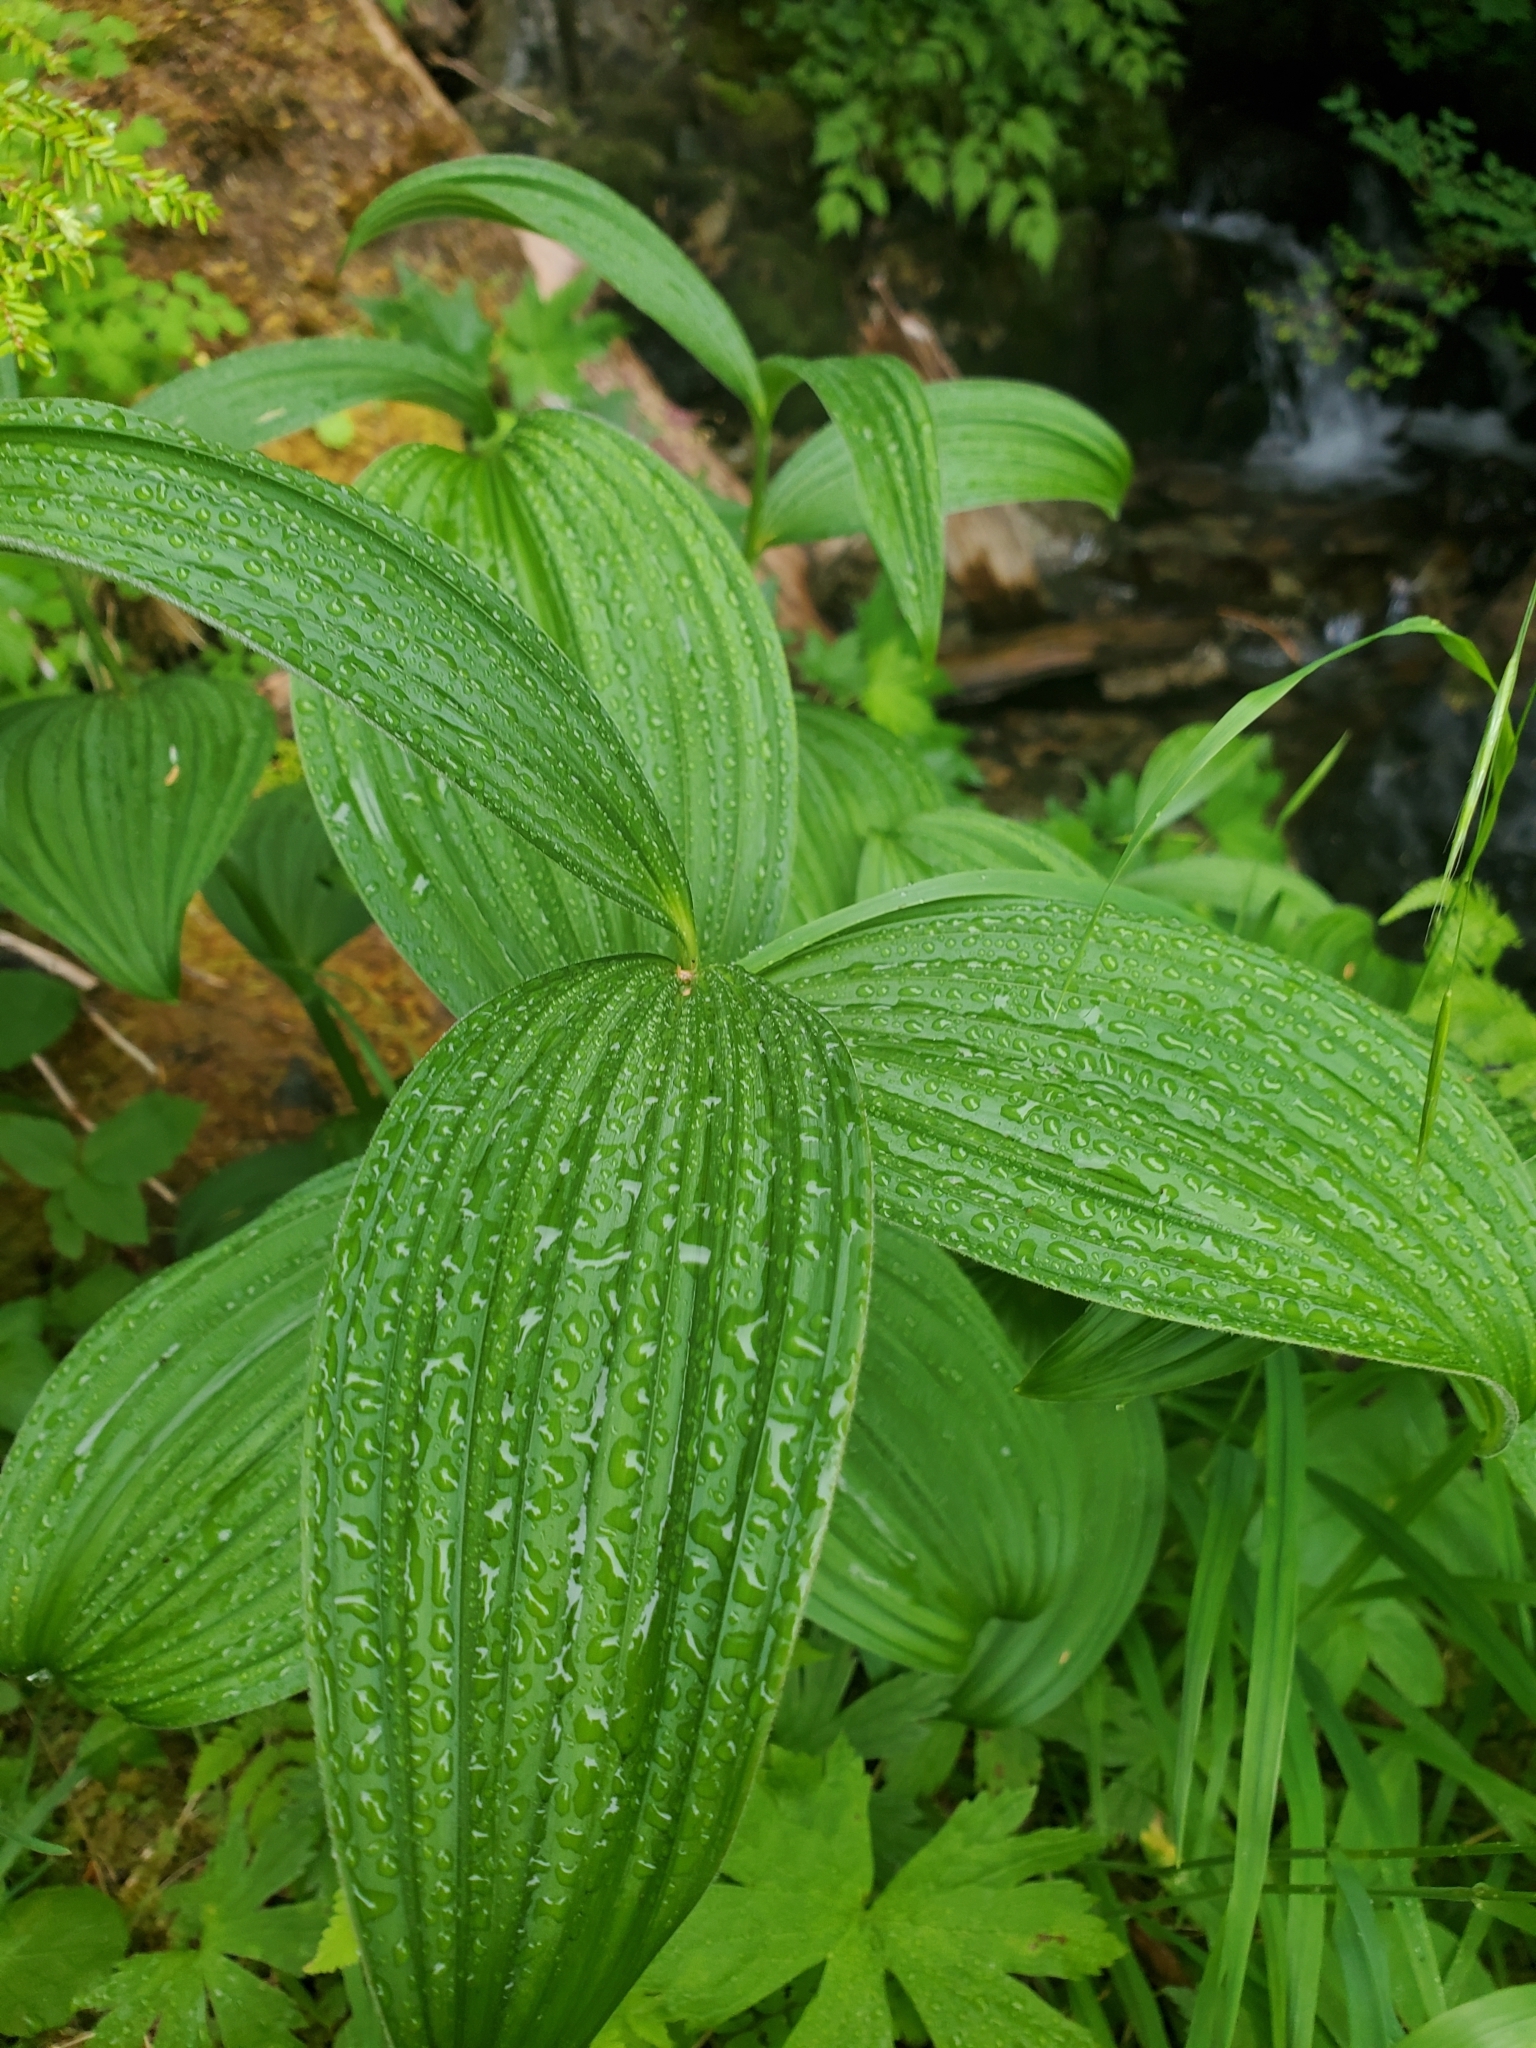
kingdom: Plantae
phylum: Tracheophyta
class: Liliopsida
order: Liliales
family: Melanthiaceae
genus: Veratrum
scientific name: Veratrum viride
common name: American false hellebore
